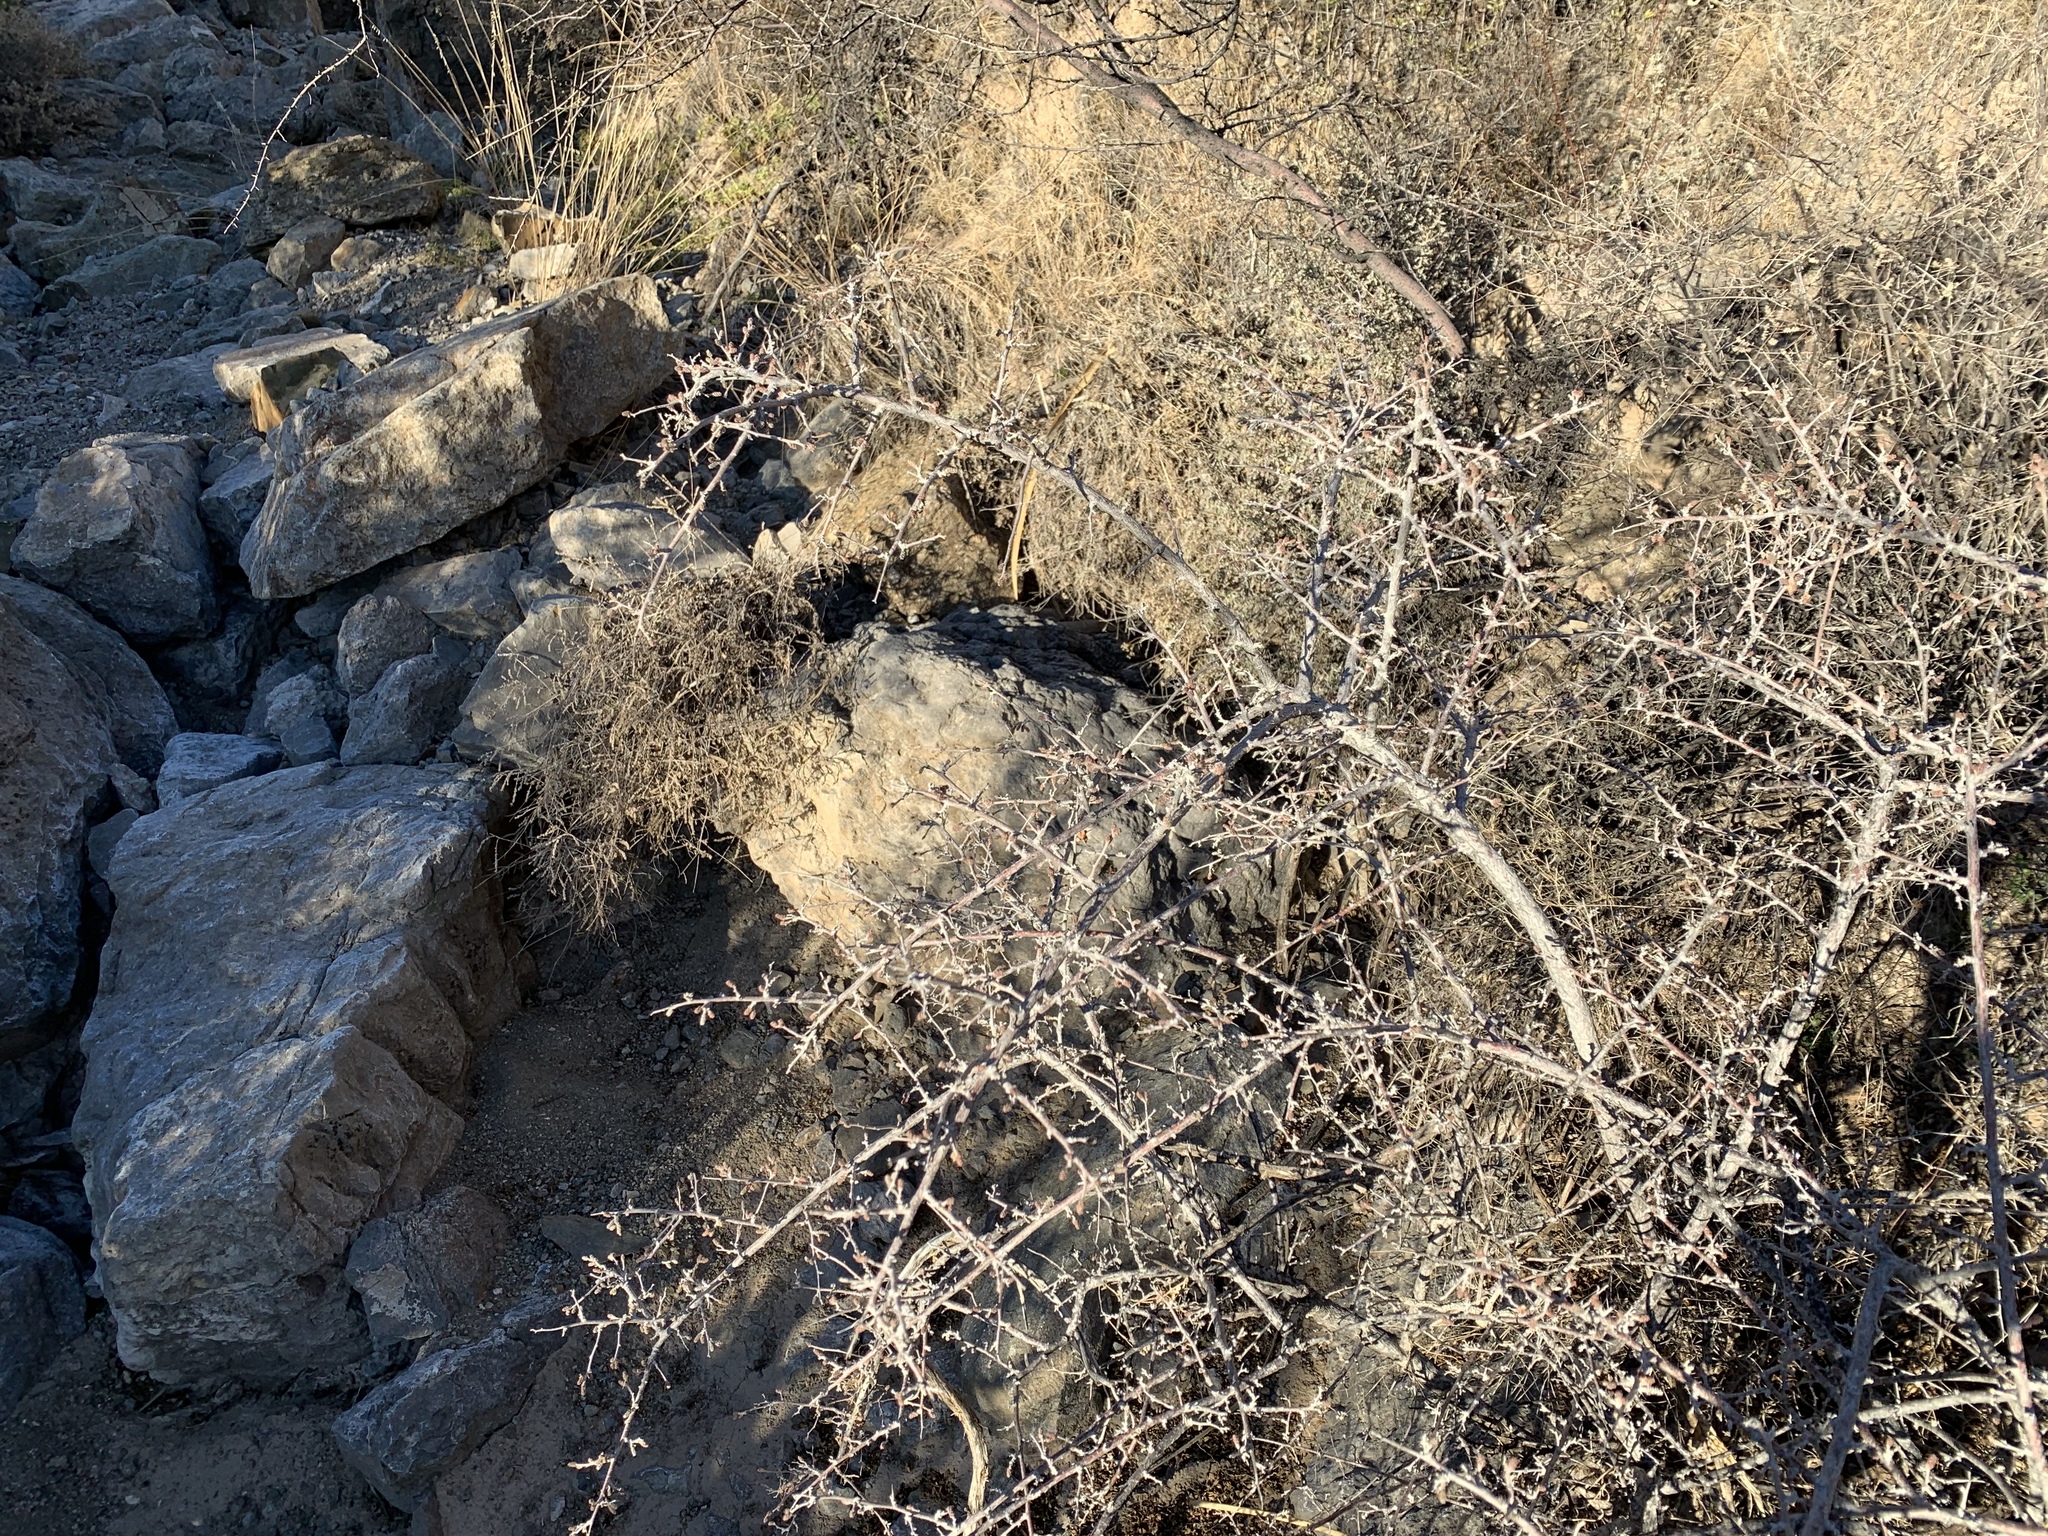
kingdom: Plantae
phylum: Tracheophyta
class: Magnoliopsida
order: Sapindales
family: Anacardiaceae
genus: Rhus
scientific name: Rhus microphylla
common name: Desert sumac
